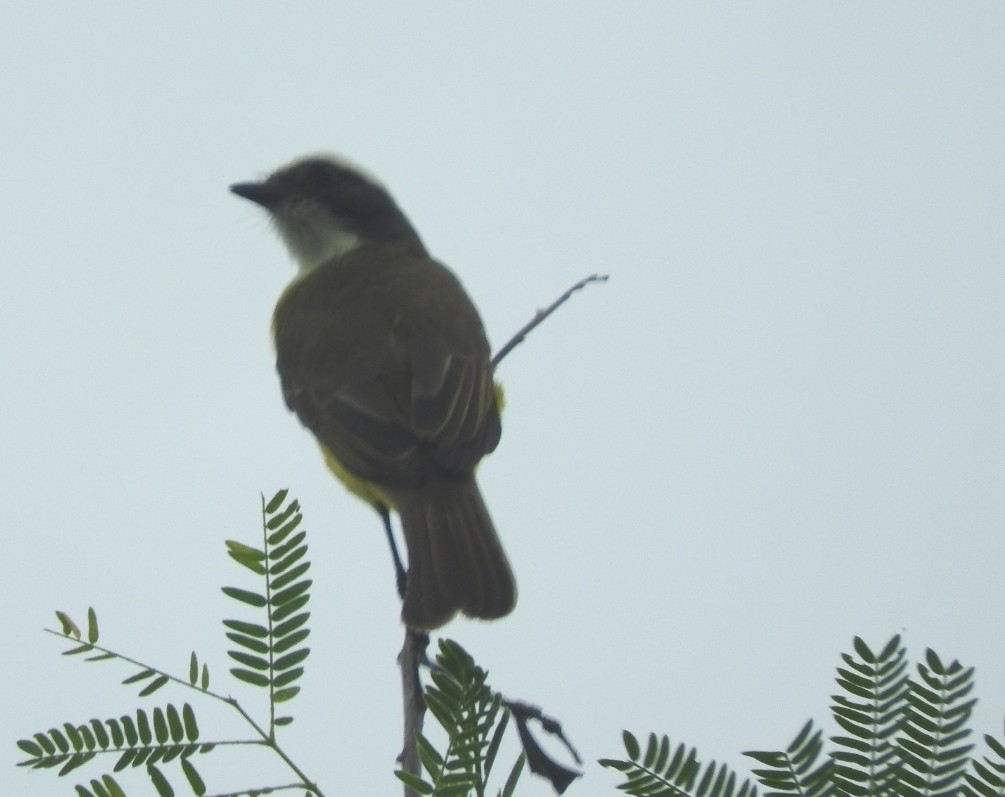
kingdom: Animalia
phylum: Chordata
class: Aves
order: Passeriformes
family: Tyrannidae
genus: Myiozetetes
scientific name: Myiozetetes similis
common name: Social flycatcher
